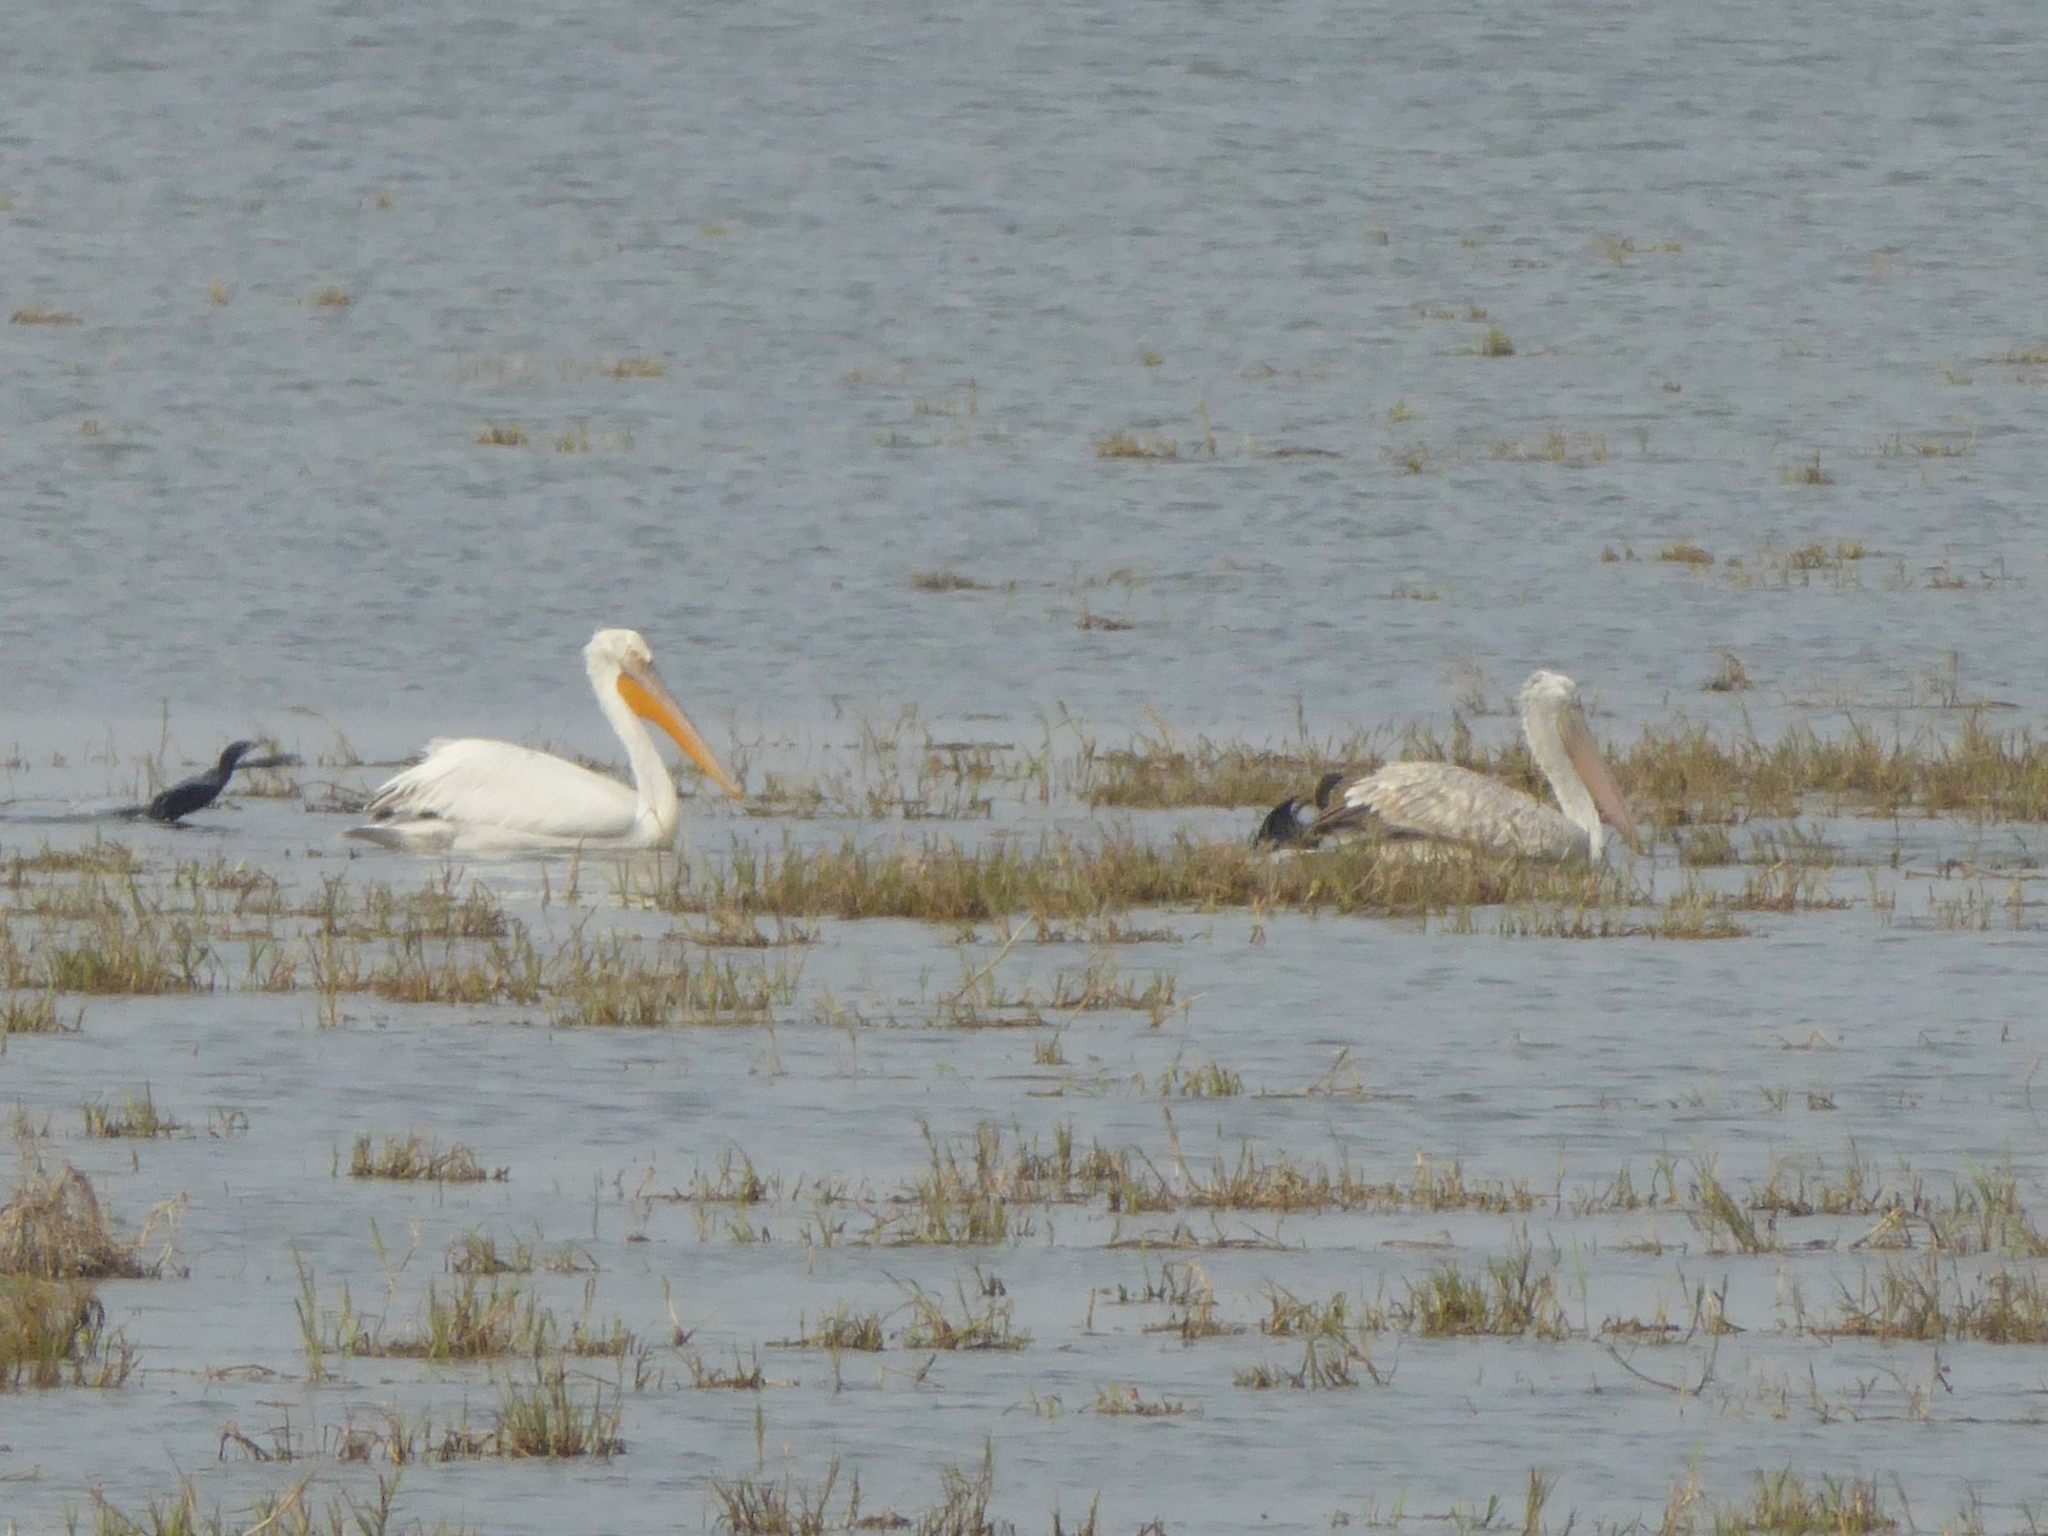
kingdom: Animalia
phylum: Chordata
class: Aves
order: Pelecaniformes
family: Pelecanidae
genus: Pelecanus
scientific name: Pelecanus onocrotalus
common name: Great white pelican
